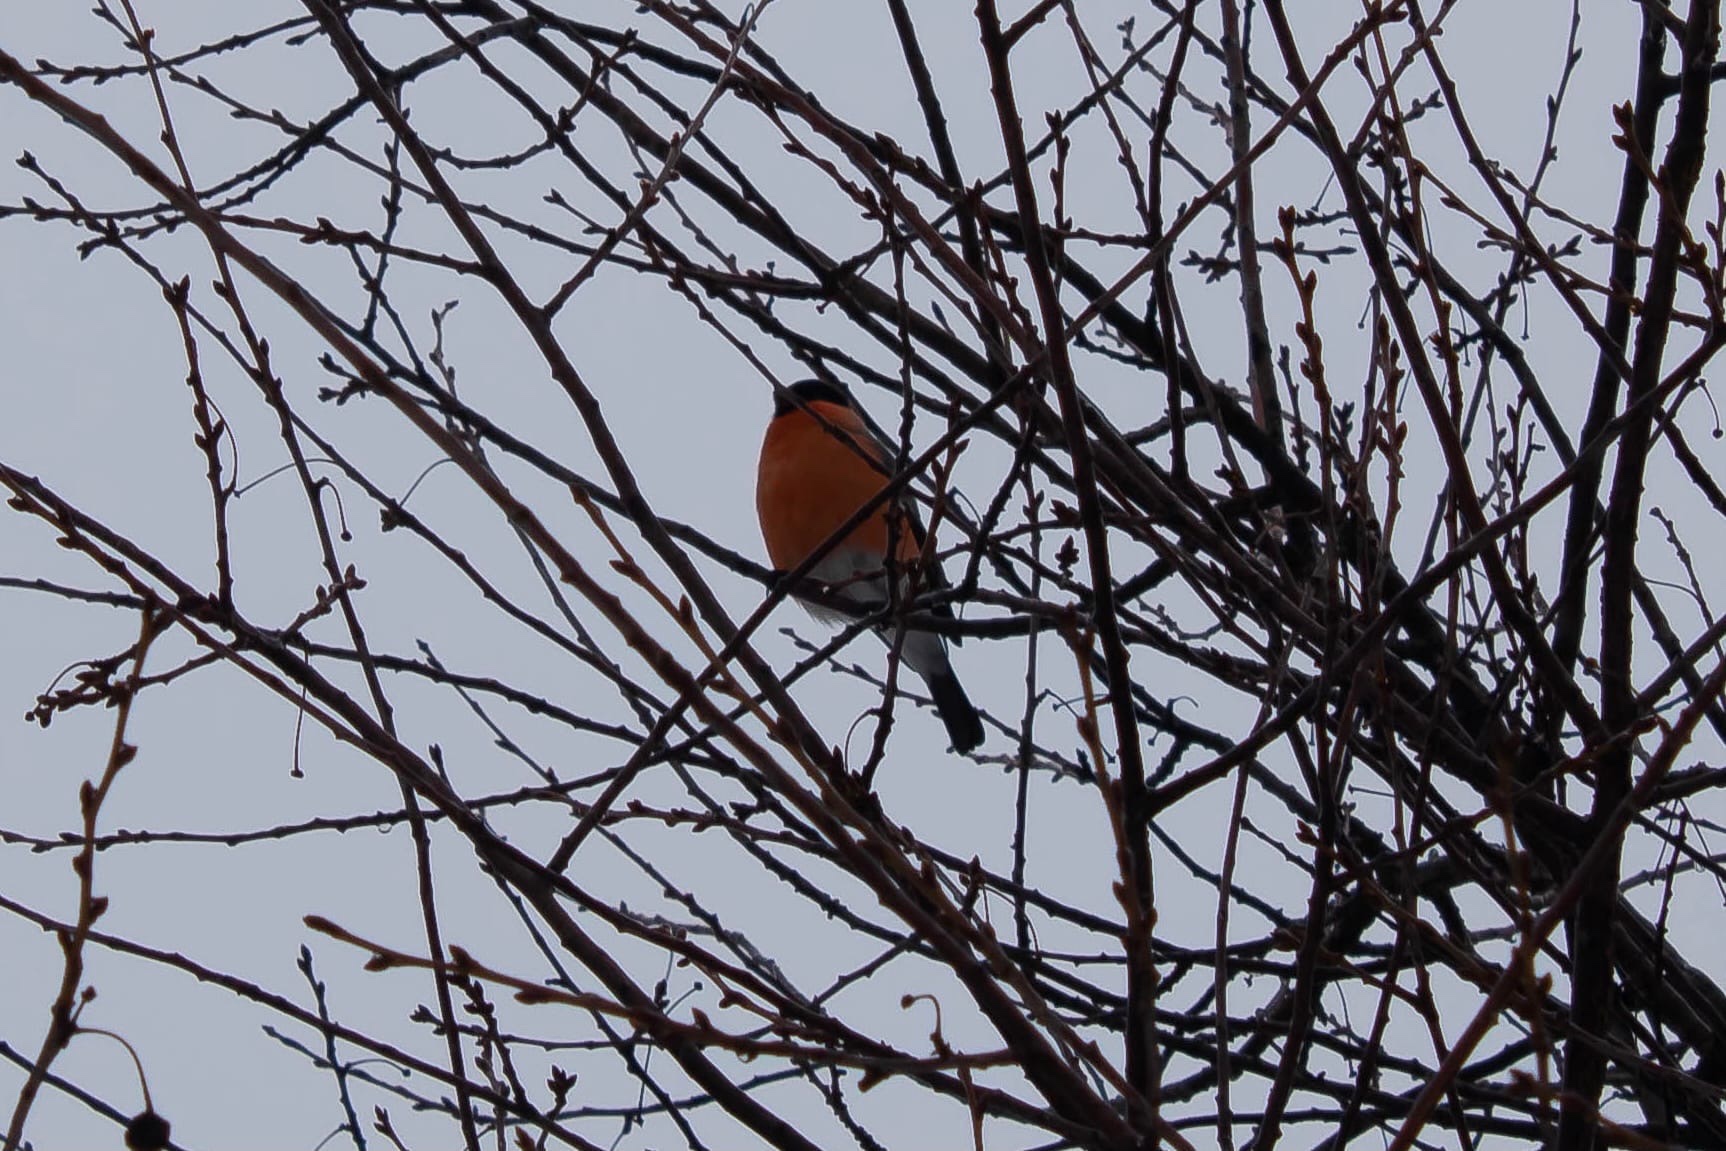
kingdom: Animalia
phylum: Chordata
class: Aves
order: Passeriformes
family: Fringillidae
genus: Pyrrhula
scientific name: Pyrrhula pyrrhula
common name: Eurasian bullfinch
